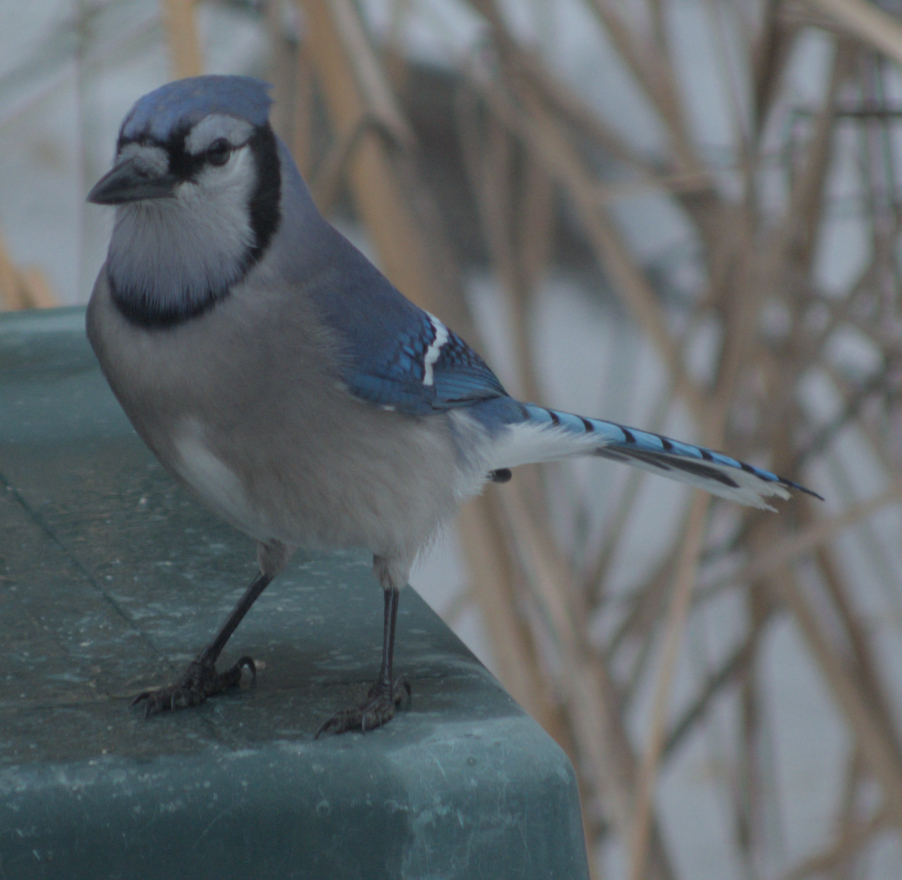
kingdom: Animalia
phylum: Chordata
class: Aves
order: Passeriformes
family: Corvidae
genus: Cyanocitta
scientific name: Cyanocitta cristata
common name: Blue jay
